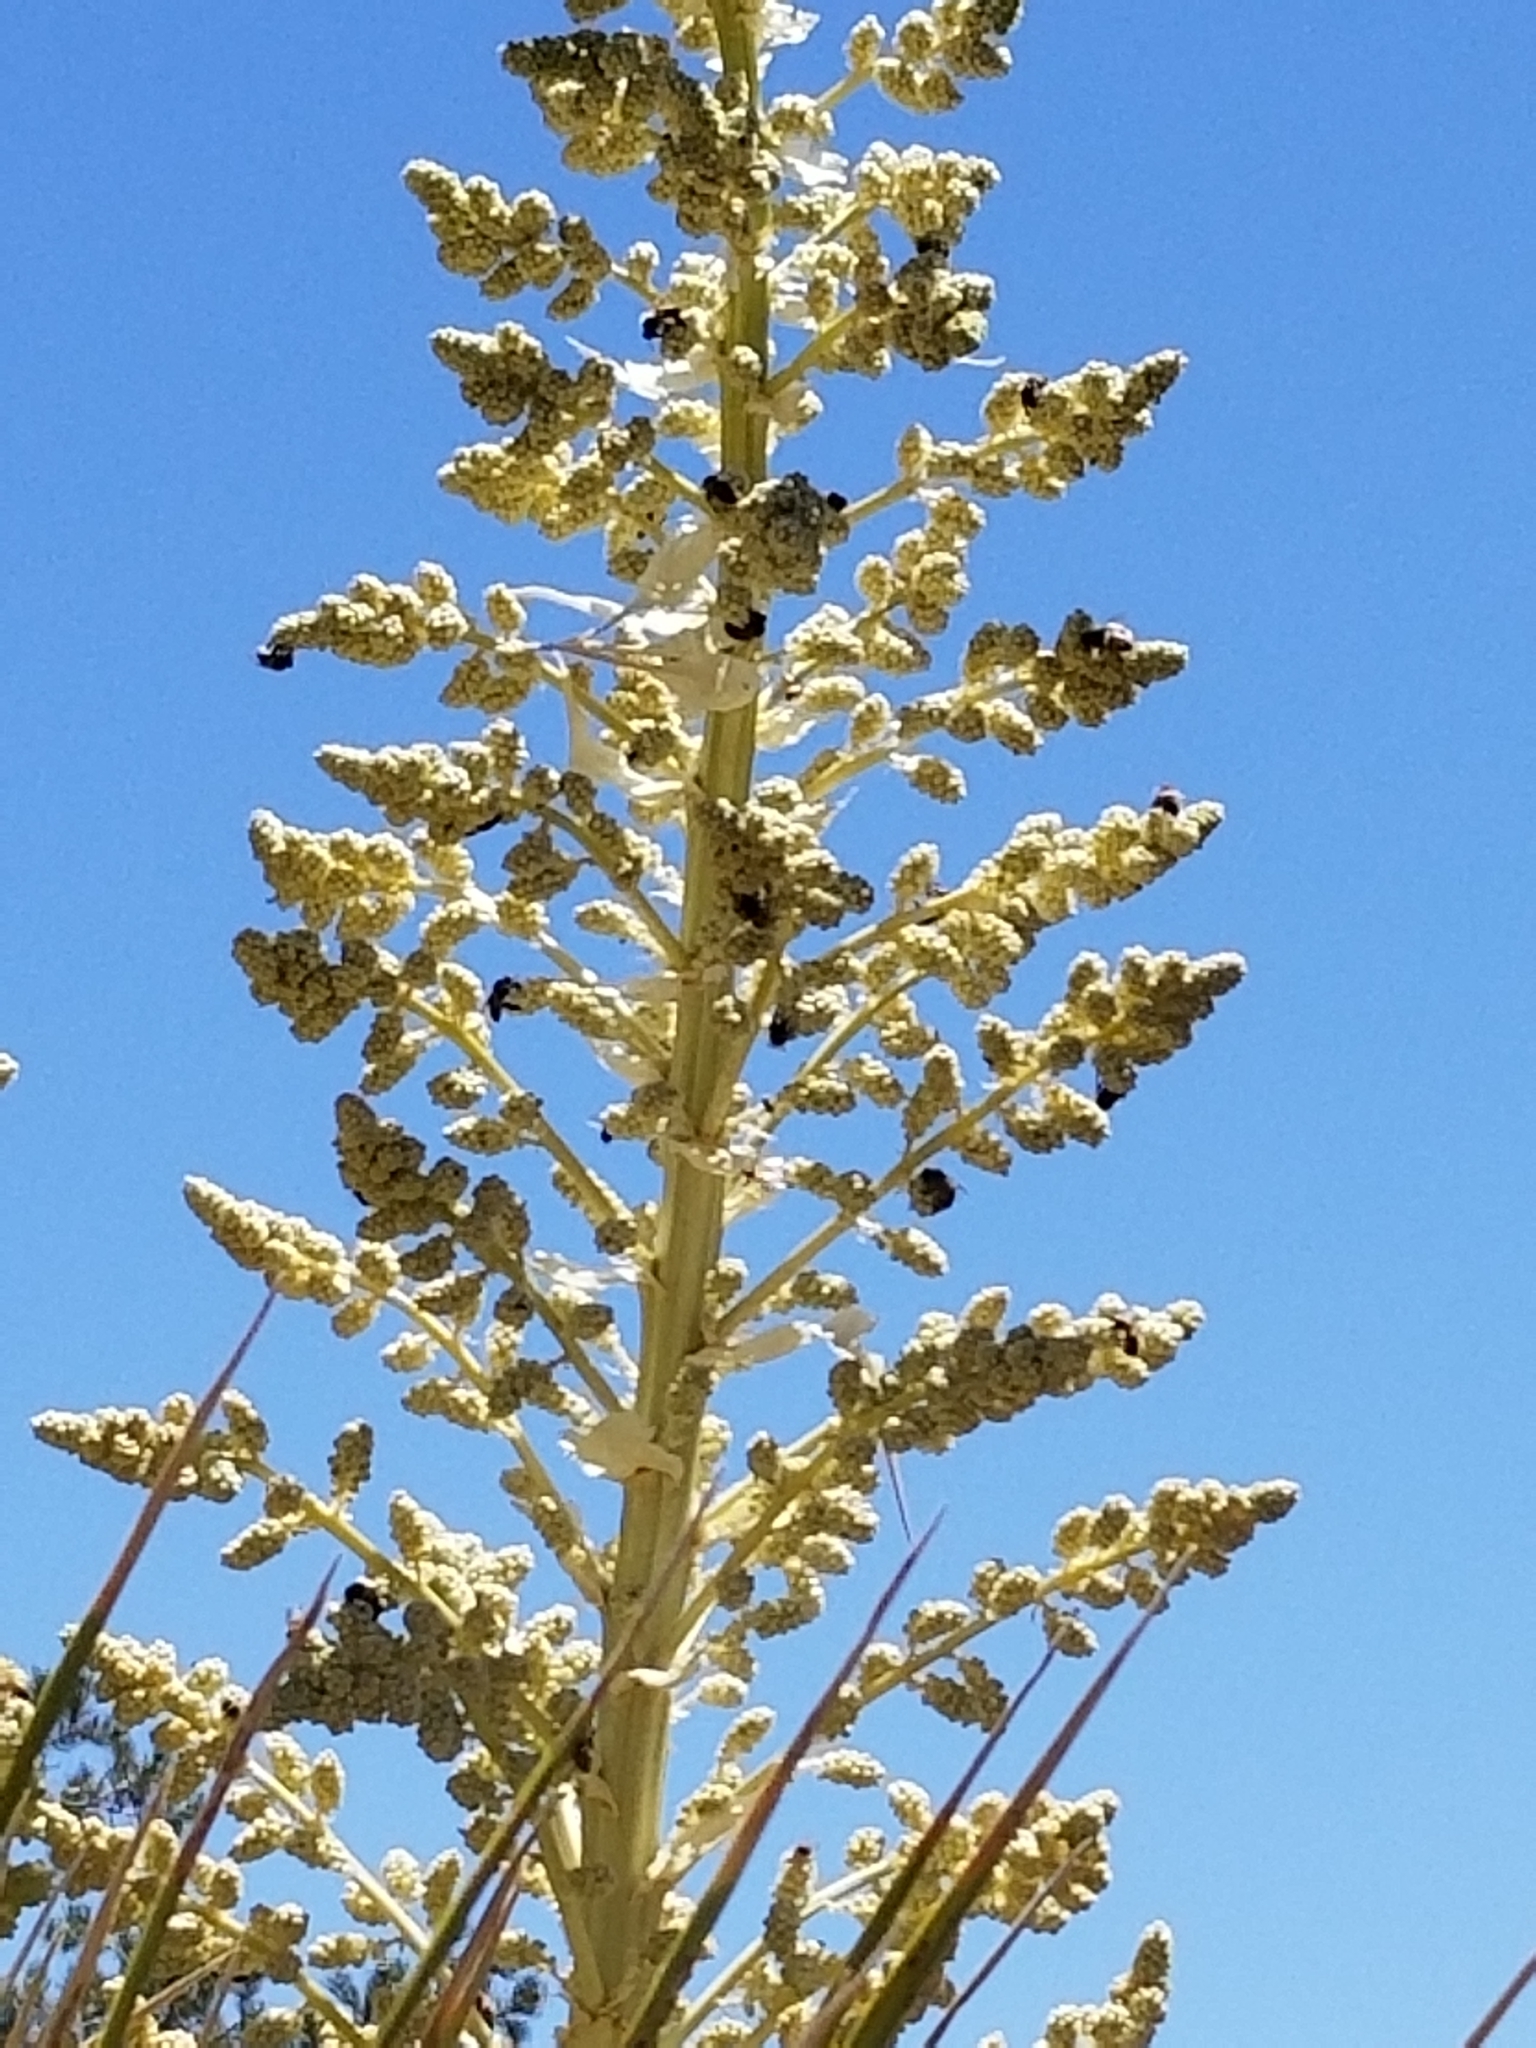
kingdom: Plantae
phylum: Tracheophyta
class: Liliopsida
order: Asparagales
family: Asparagaceae
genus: Nolina
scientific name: Nolina parryi
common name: Parry nolina
